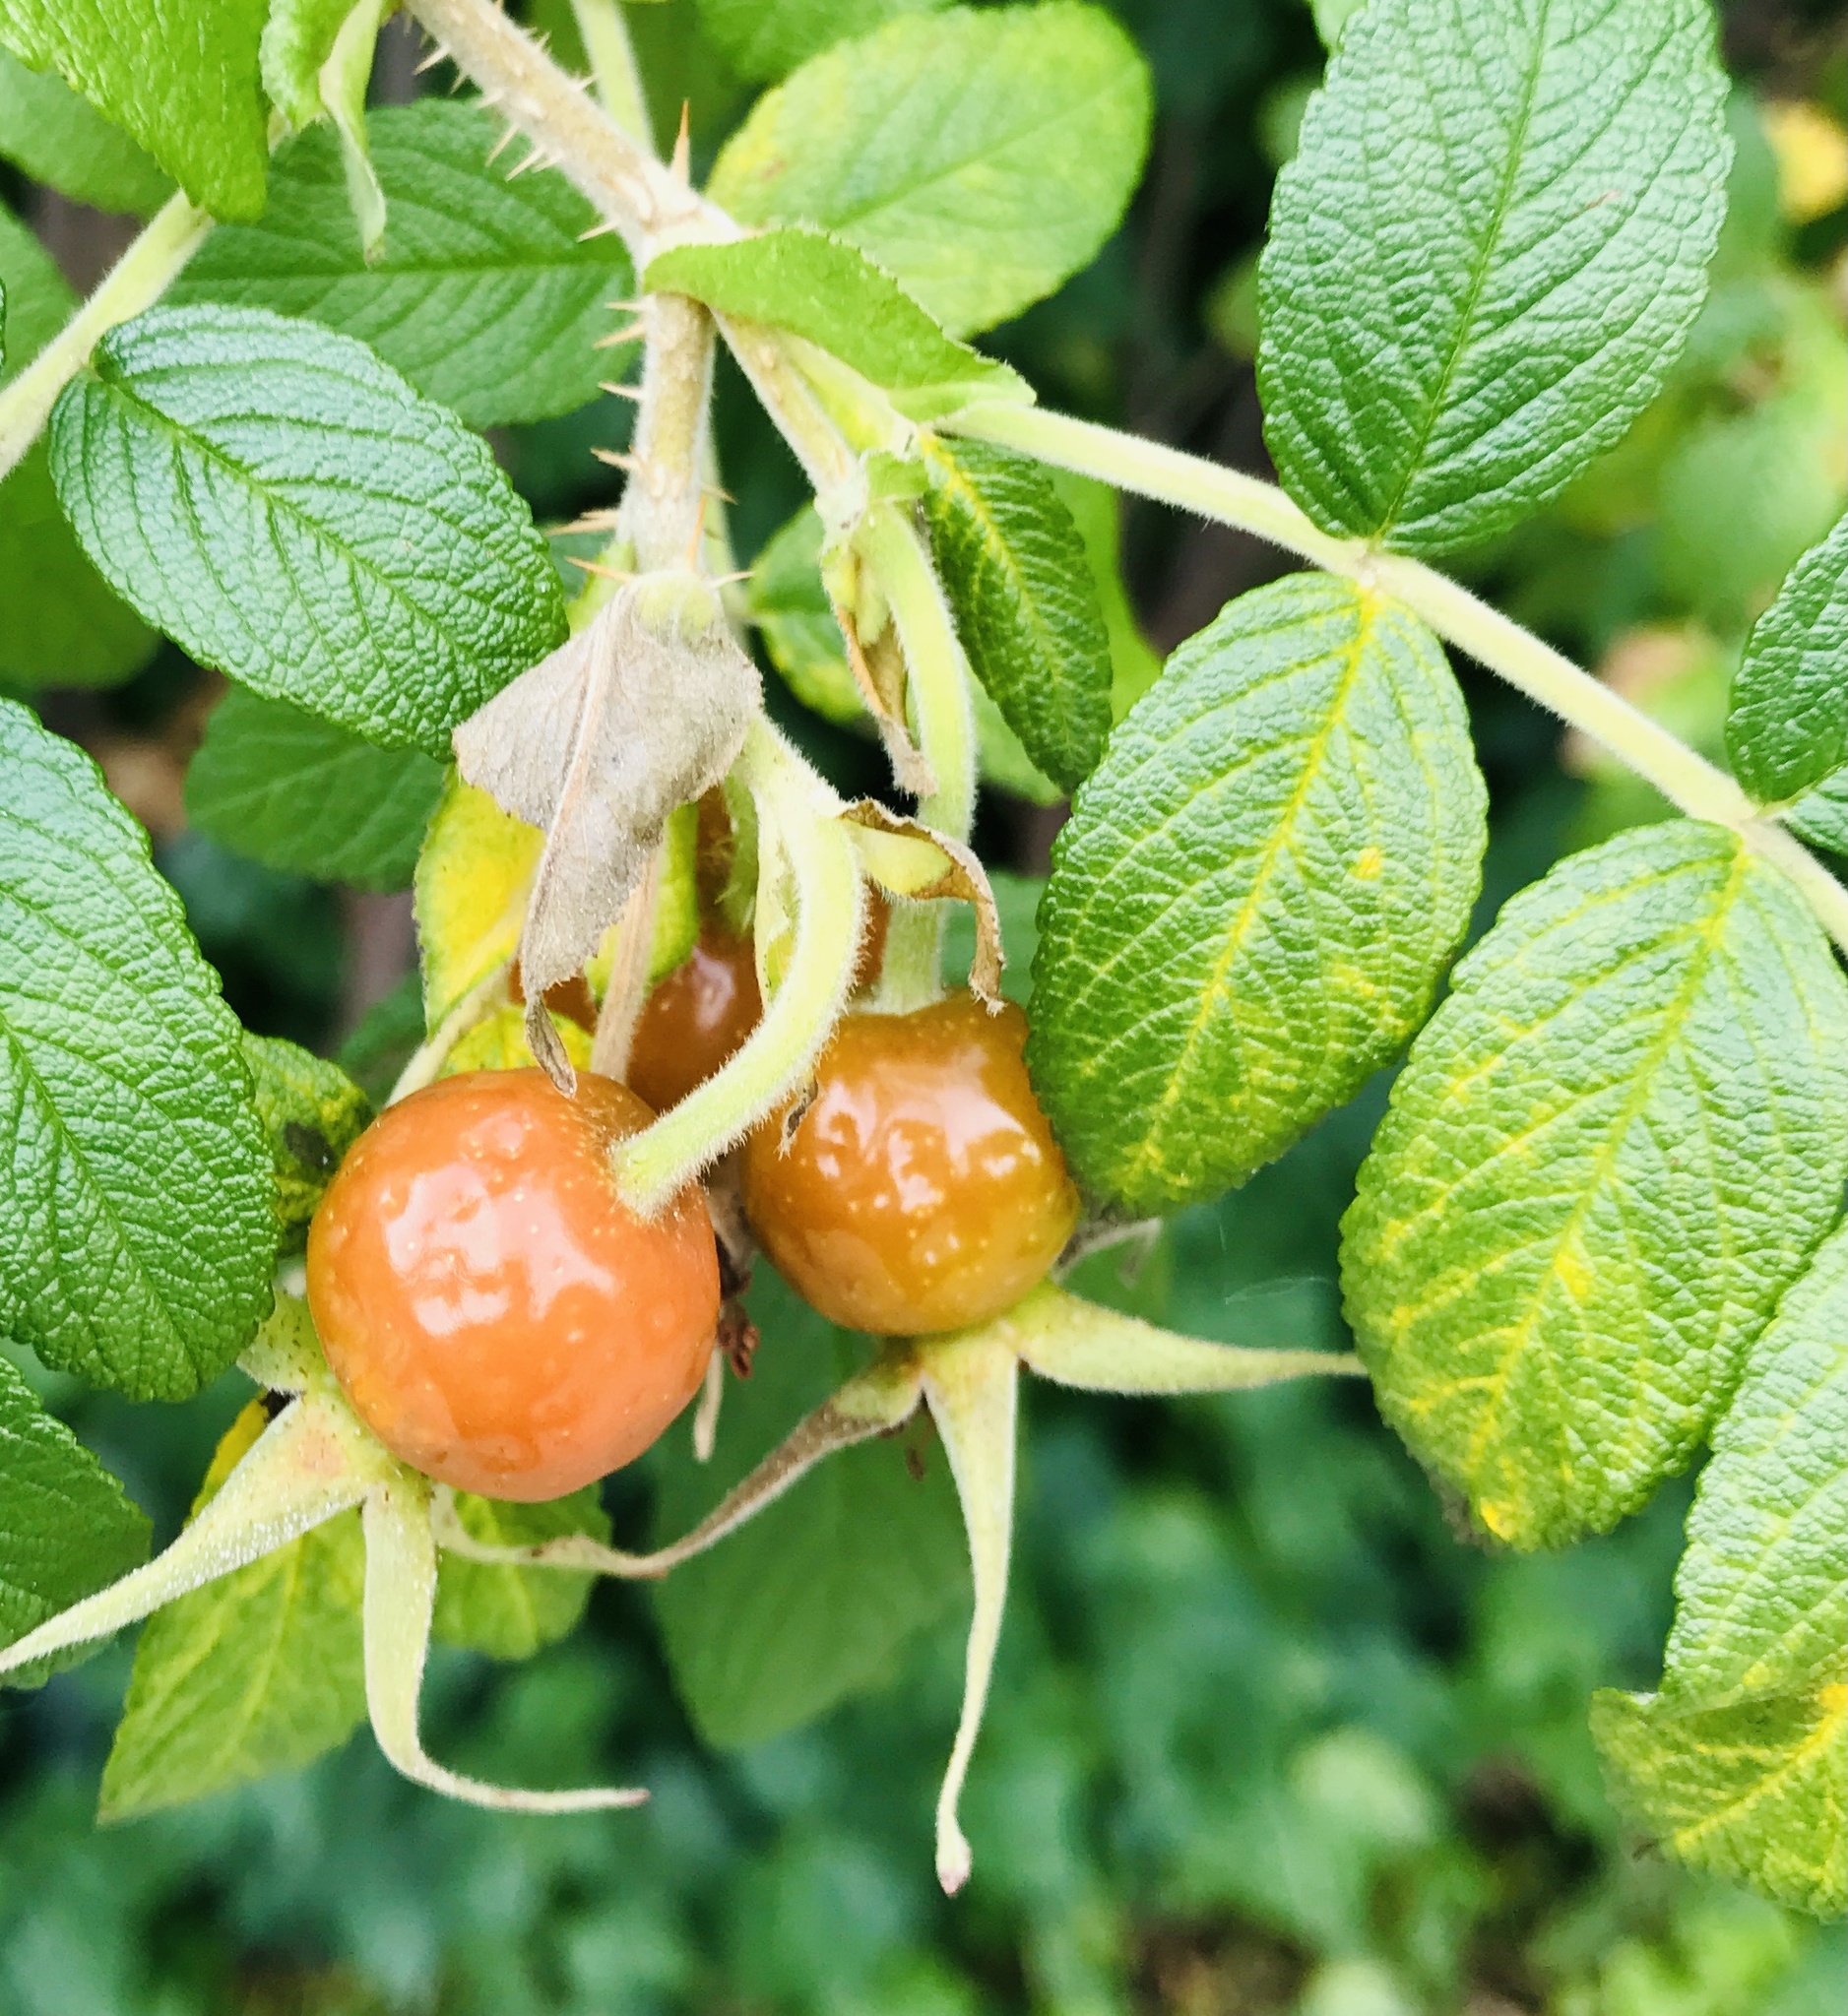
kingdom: Plantae
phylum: Tracheophyta
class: Magnoliopsida
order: Rosales
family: Rosaceae
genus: Rosa
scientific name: Rosa rugosa
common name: Japanese rose
